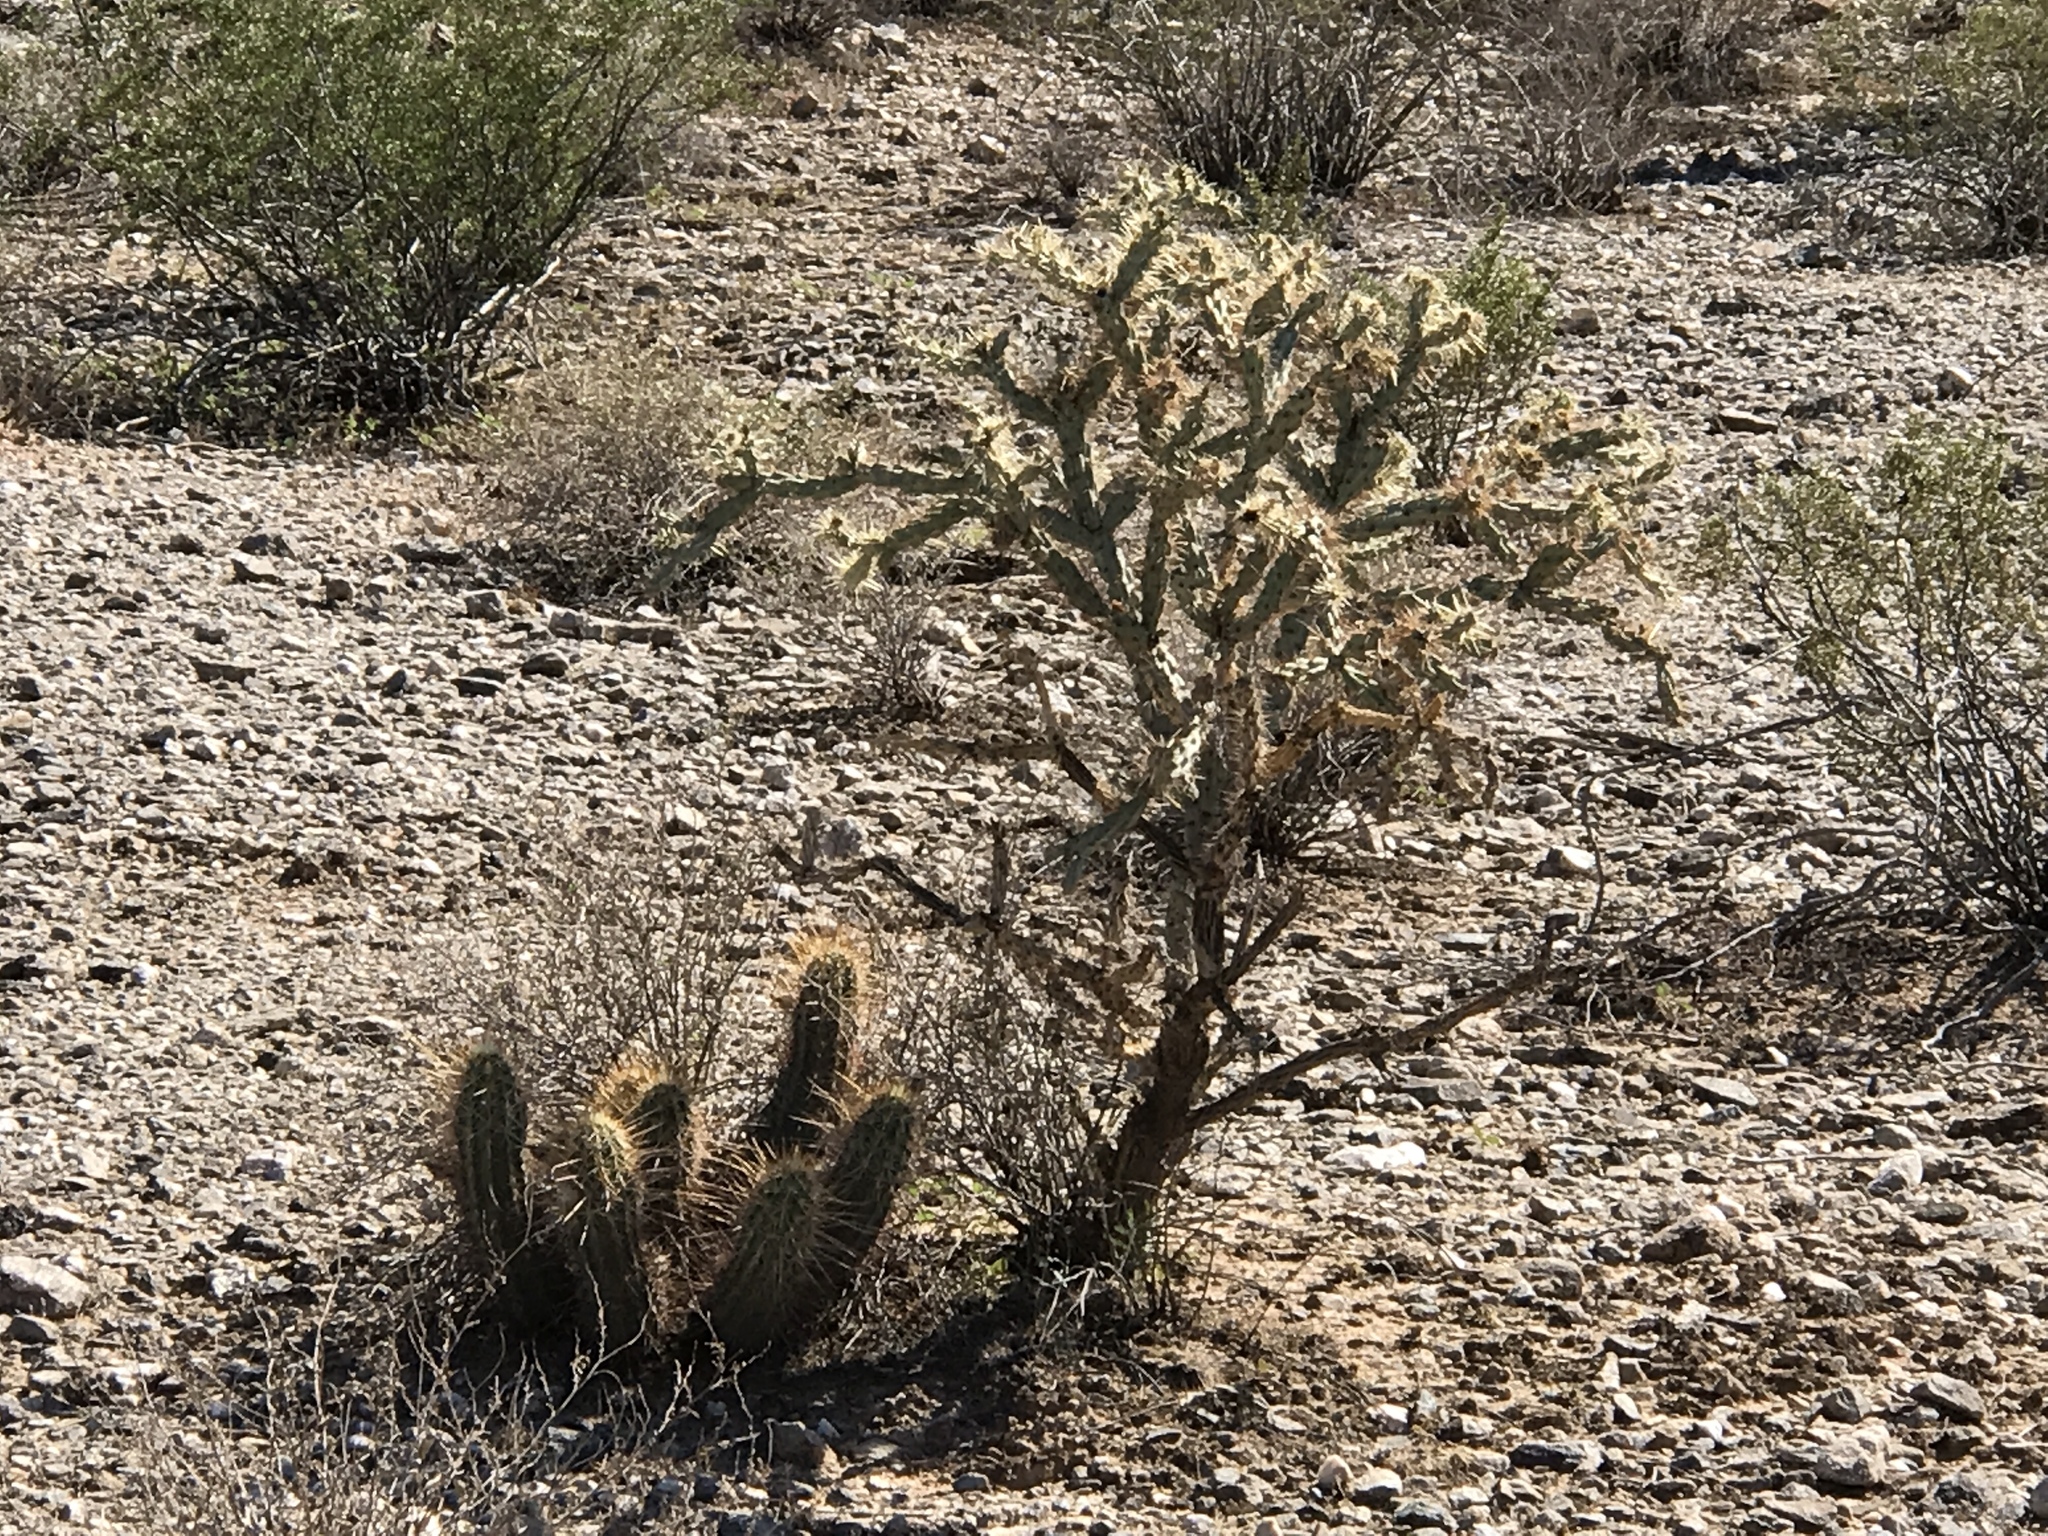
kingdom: Plantae
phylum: Tracheophyta
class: Magnoliopsida
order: Caryophyllales
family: Cactaceae
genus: Echinocereus
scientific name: Echinocereus engelmannii
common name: Engelmann's hedgehog cactus
